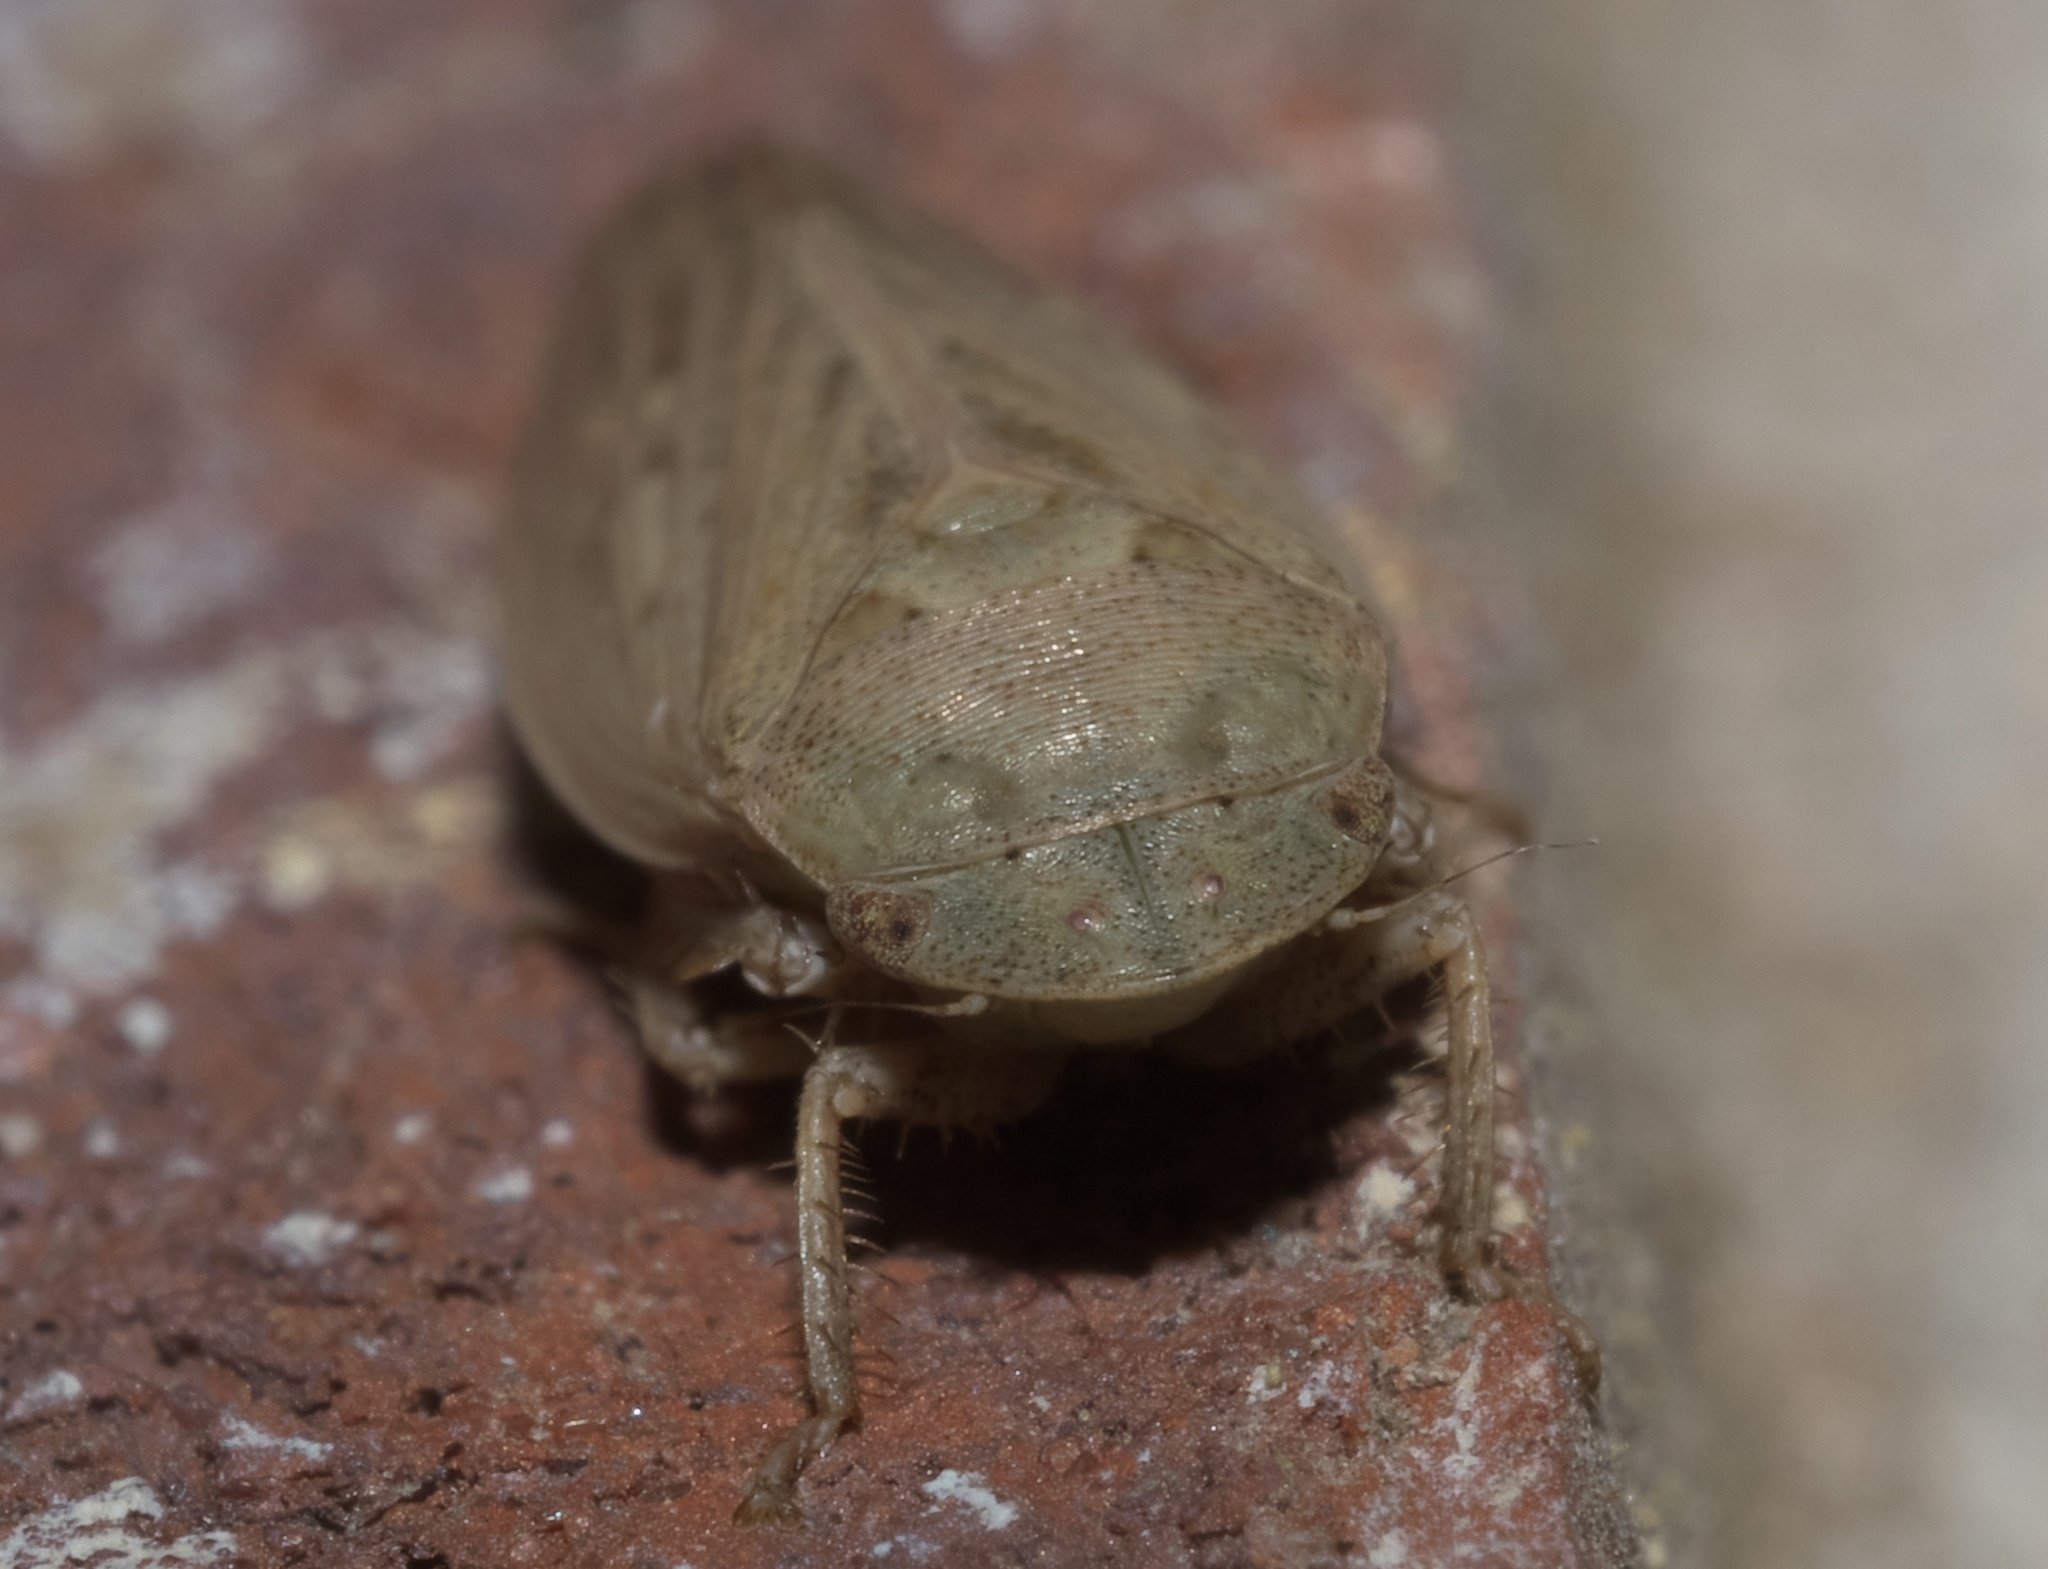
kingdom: Animalia
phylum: Arthropoda
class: Insecta
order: Hemiptera
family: Cicadellidae
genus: Negosiana
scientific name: Negosiana dualis
